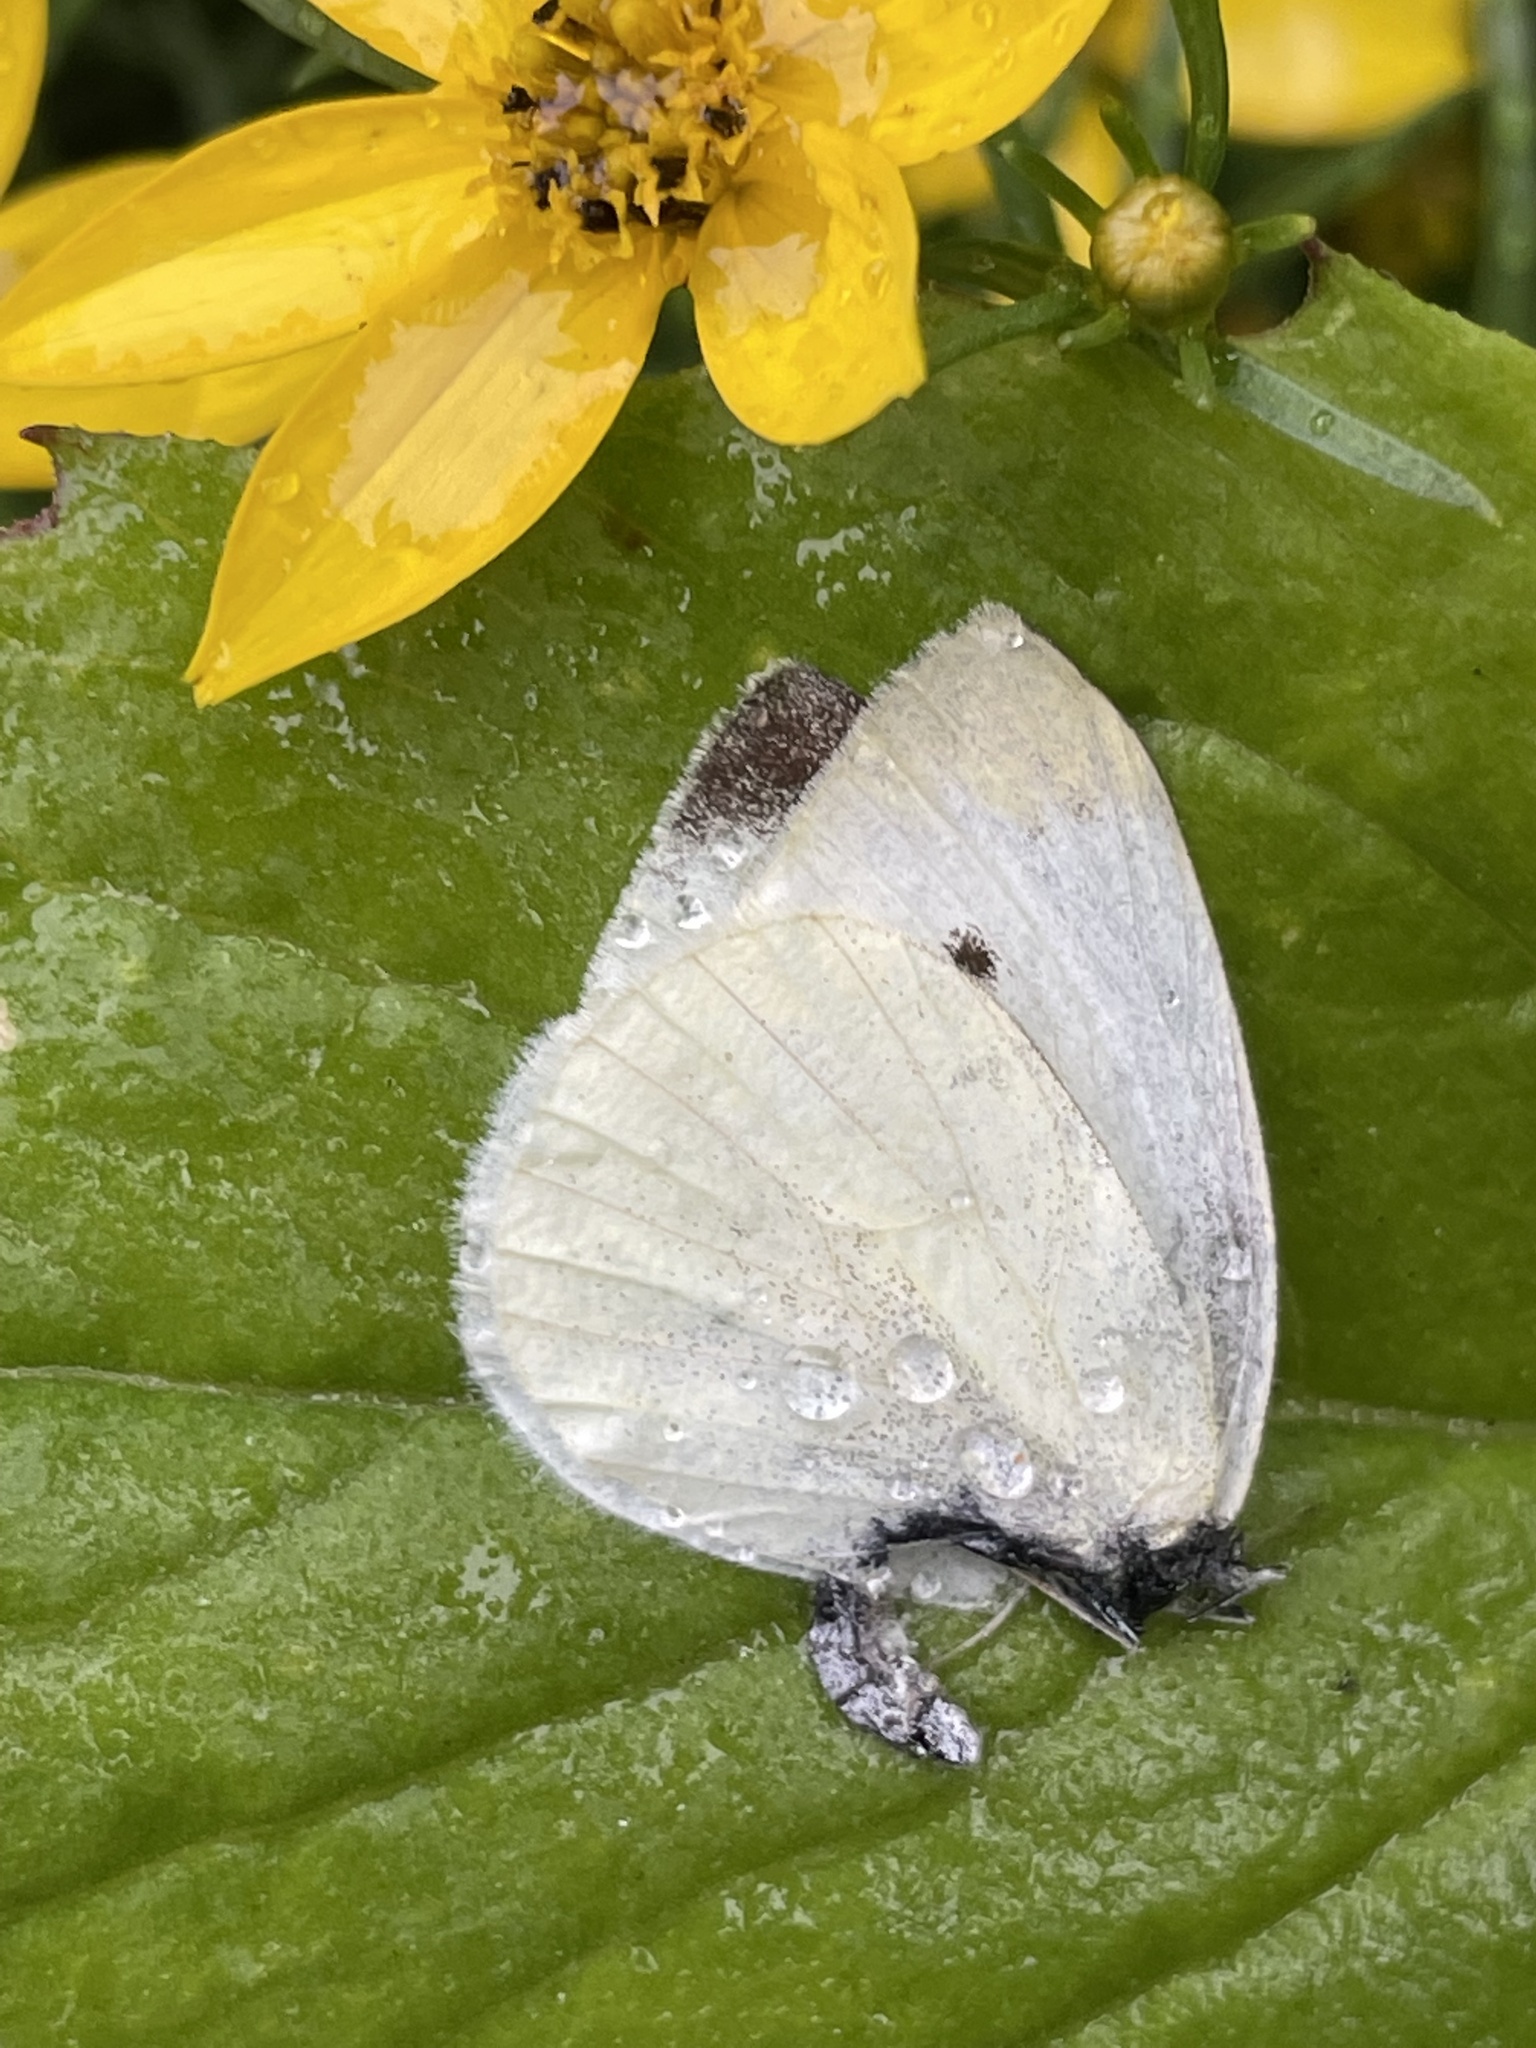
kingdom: Animalia
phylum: Arthropoda
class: Insecta
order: Lepidoptera
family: Pieridae
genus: Pieris
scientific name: Pieris rapae
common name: Small white
